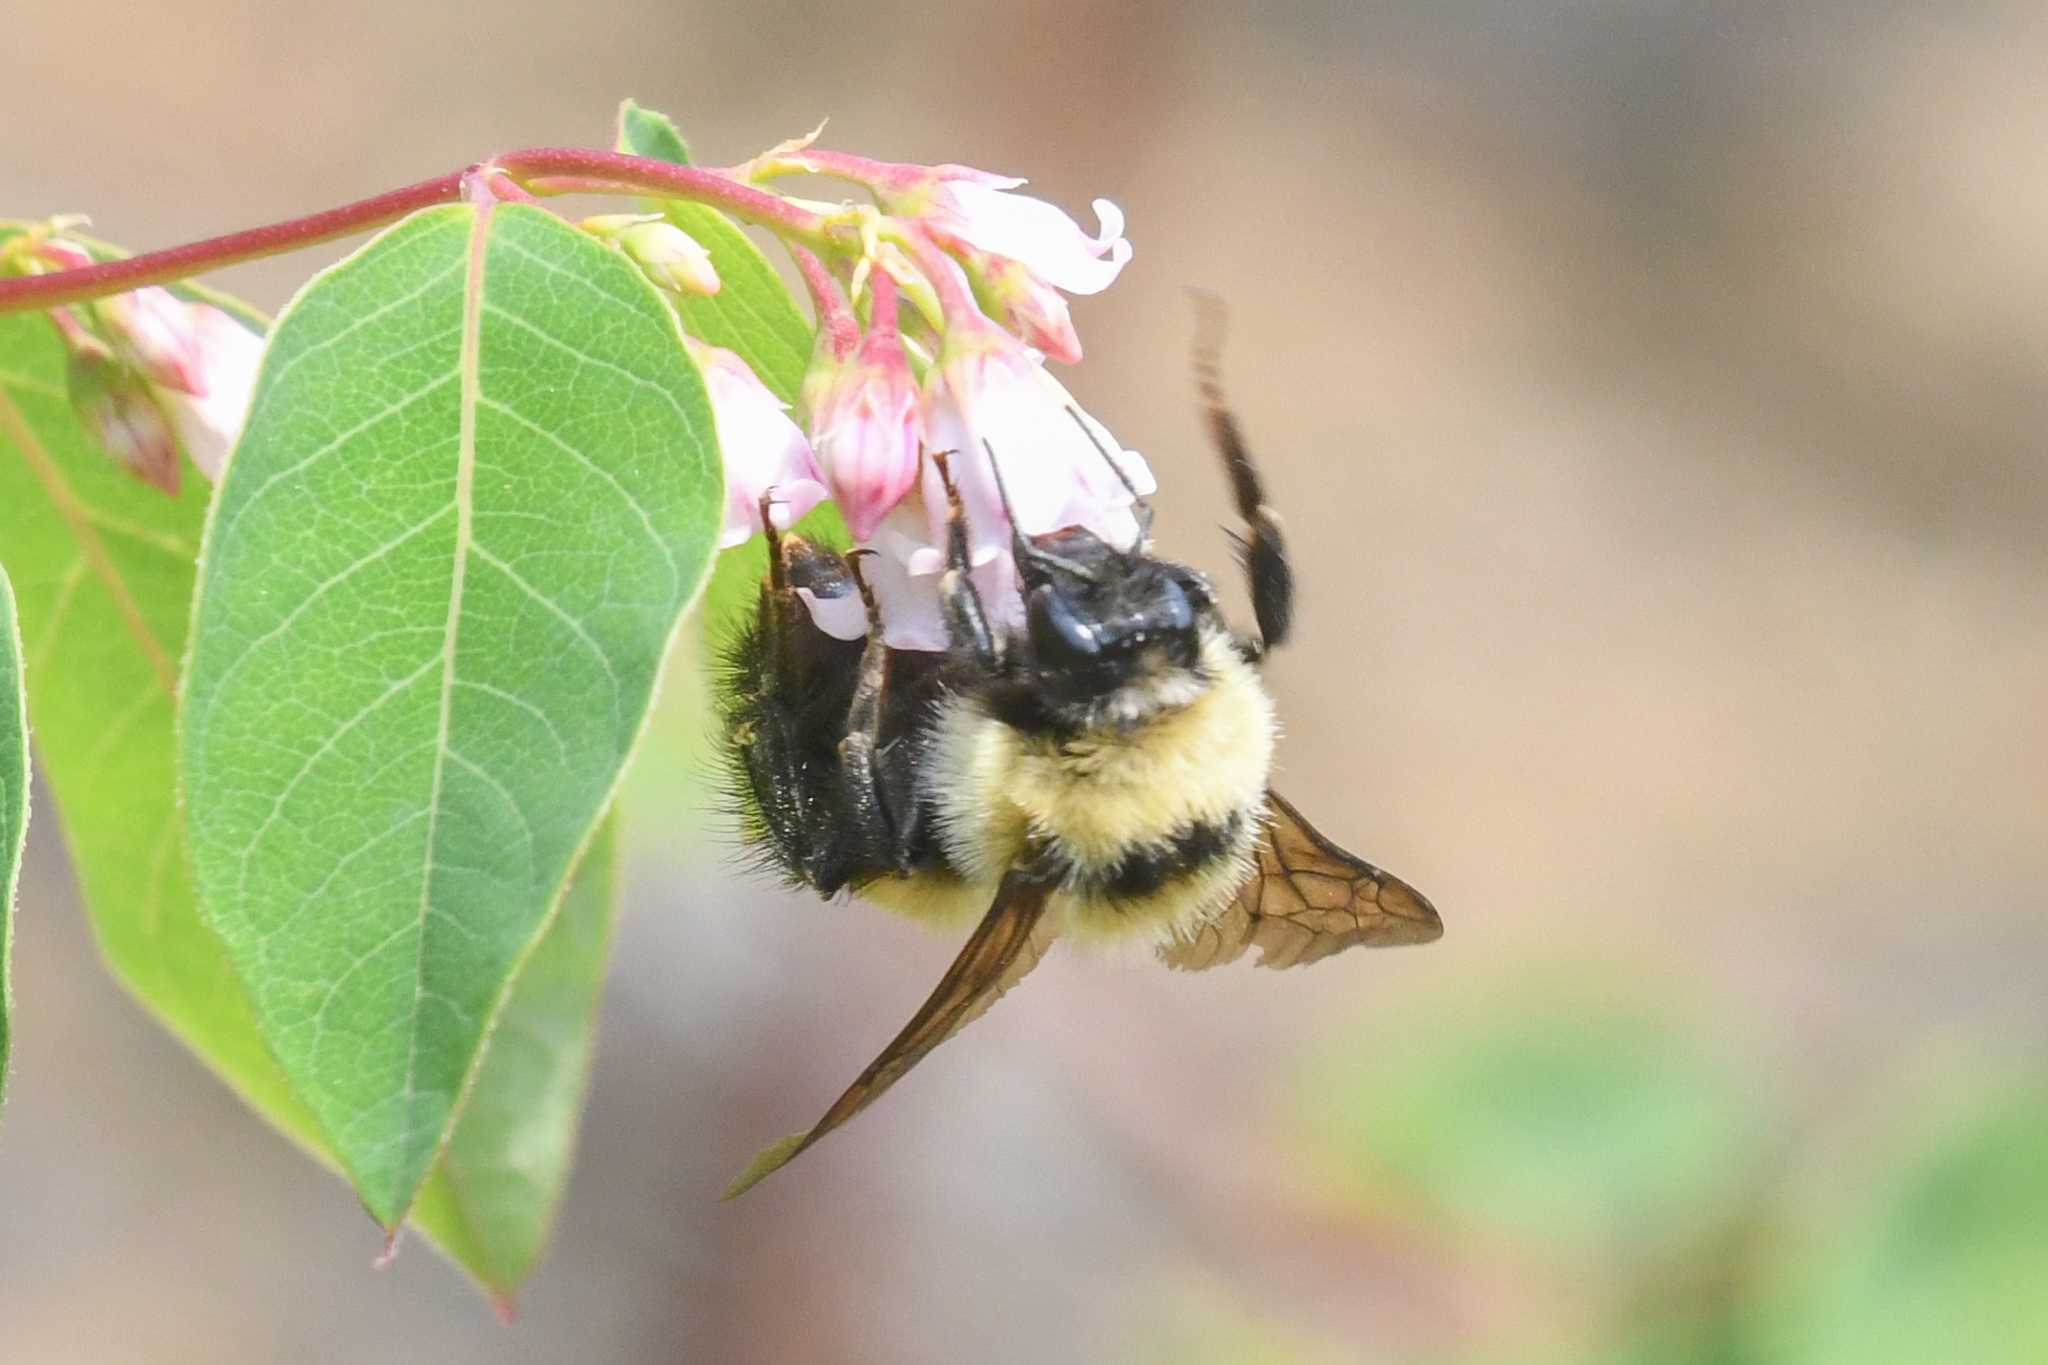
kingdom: Animalia
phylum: Arthropoda
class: Insecta
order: Hymenoptera
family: Apidae
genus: Bombus
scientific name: Bombus rufocinctus
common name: Red-belted bumble bee
